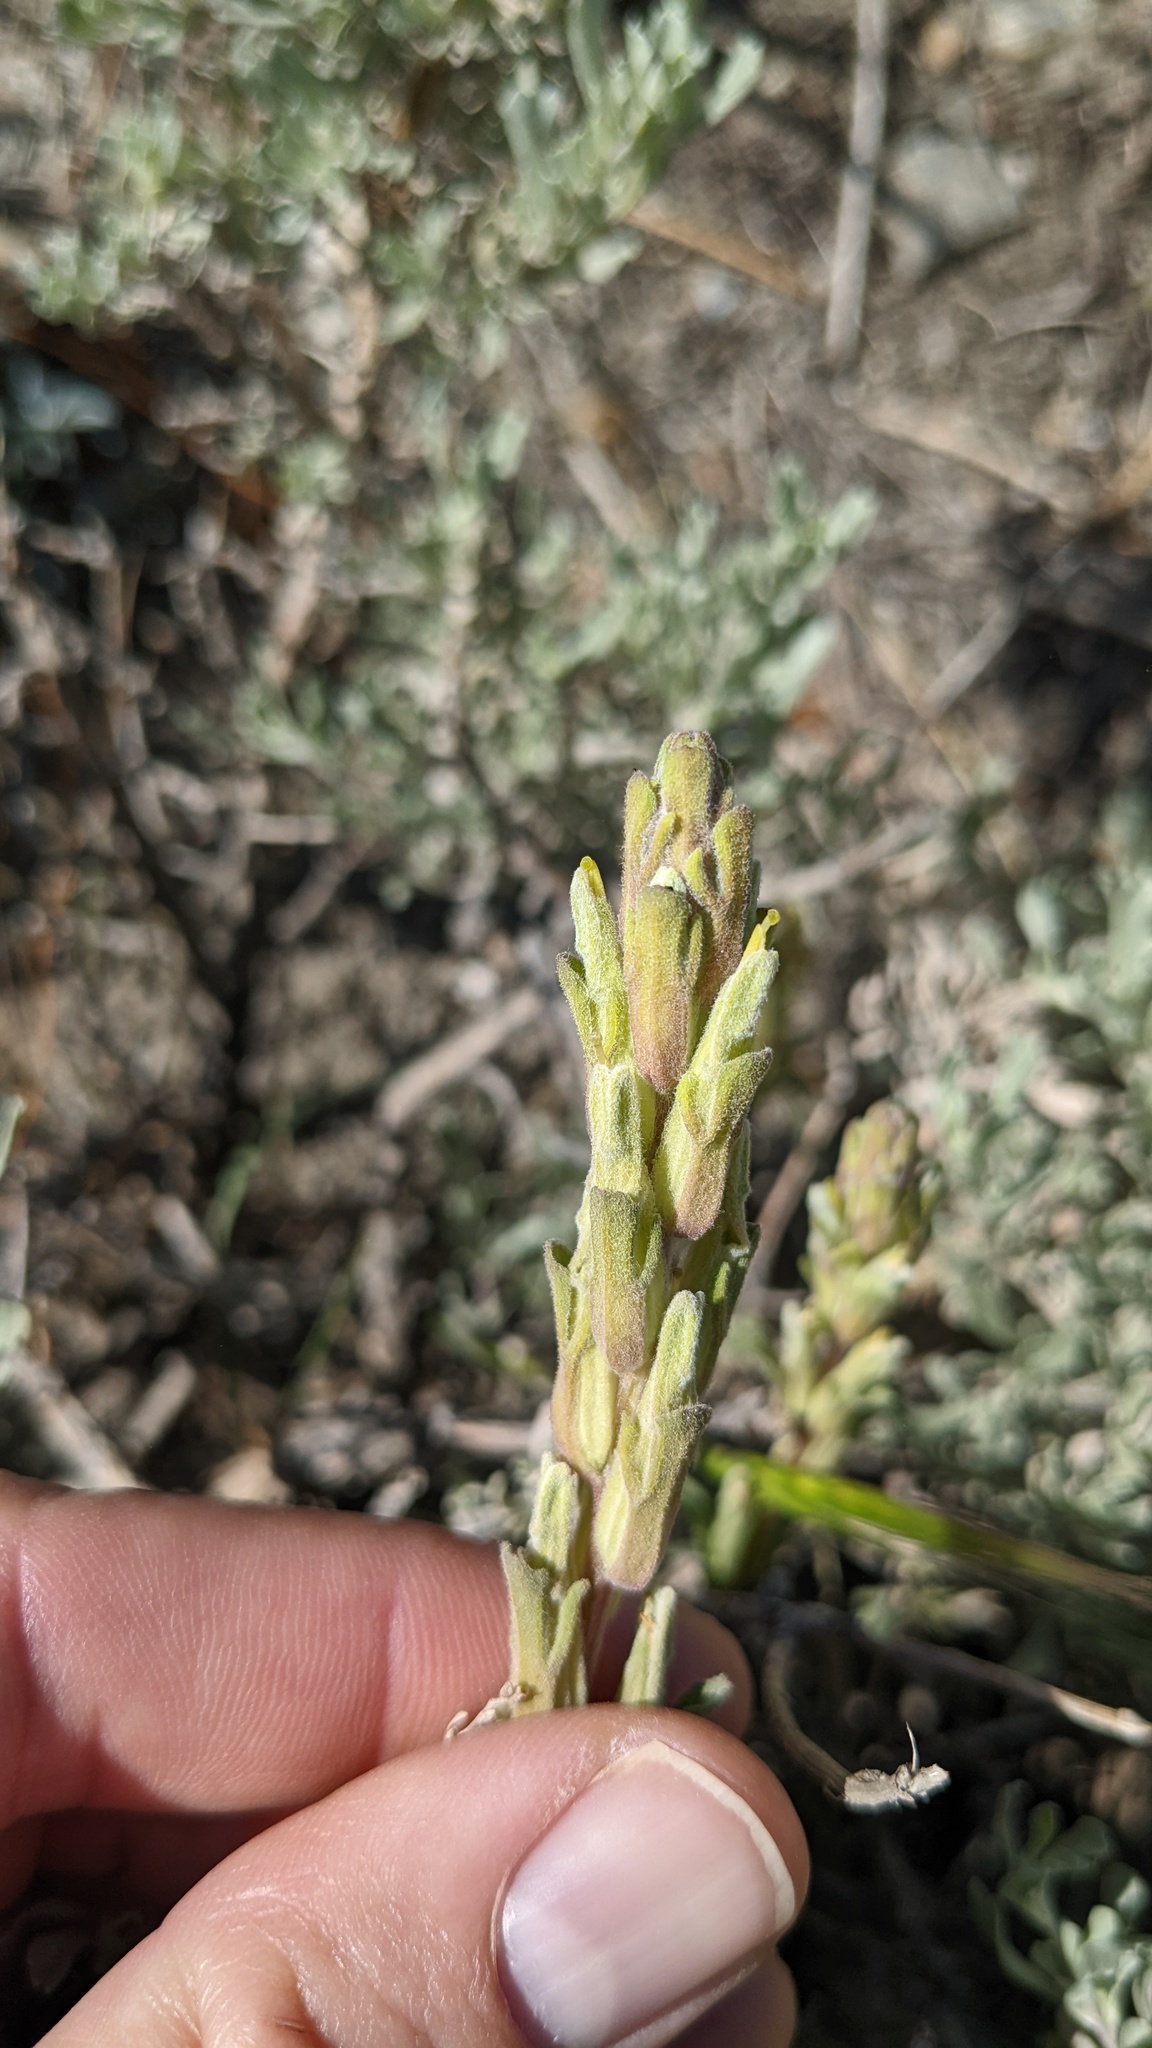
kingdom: Plantae
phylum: Tracheophyta
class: Magnoliopsida
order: Lamiales
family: Orobanchaceae
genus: Castilleja
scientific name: Castilleja plagiotoma
